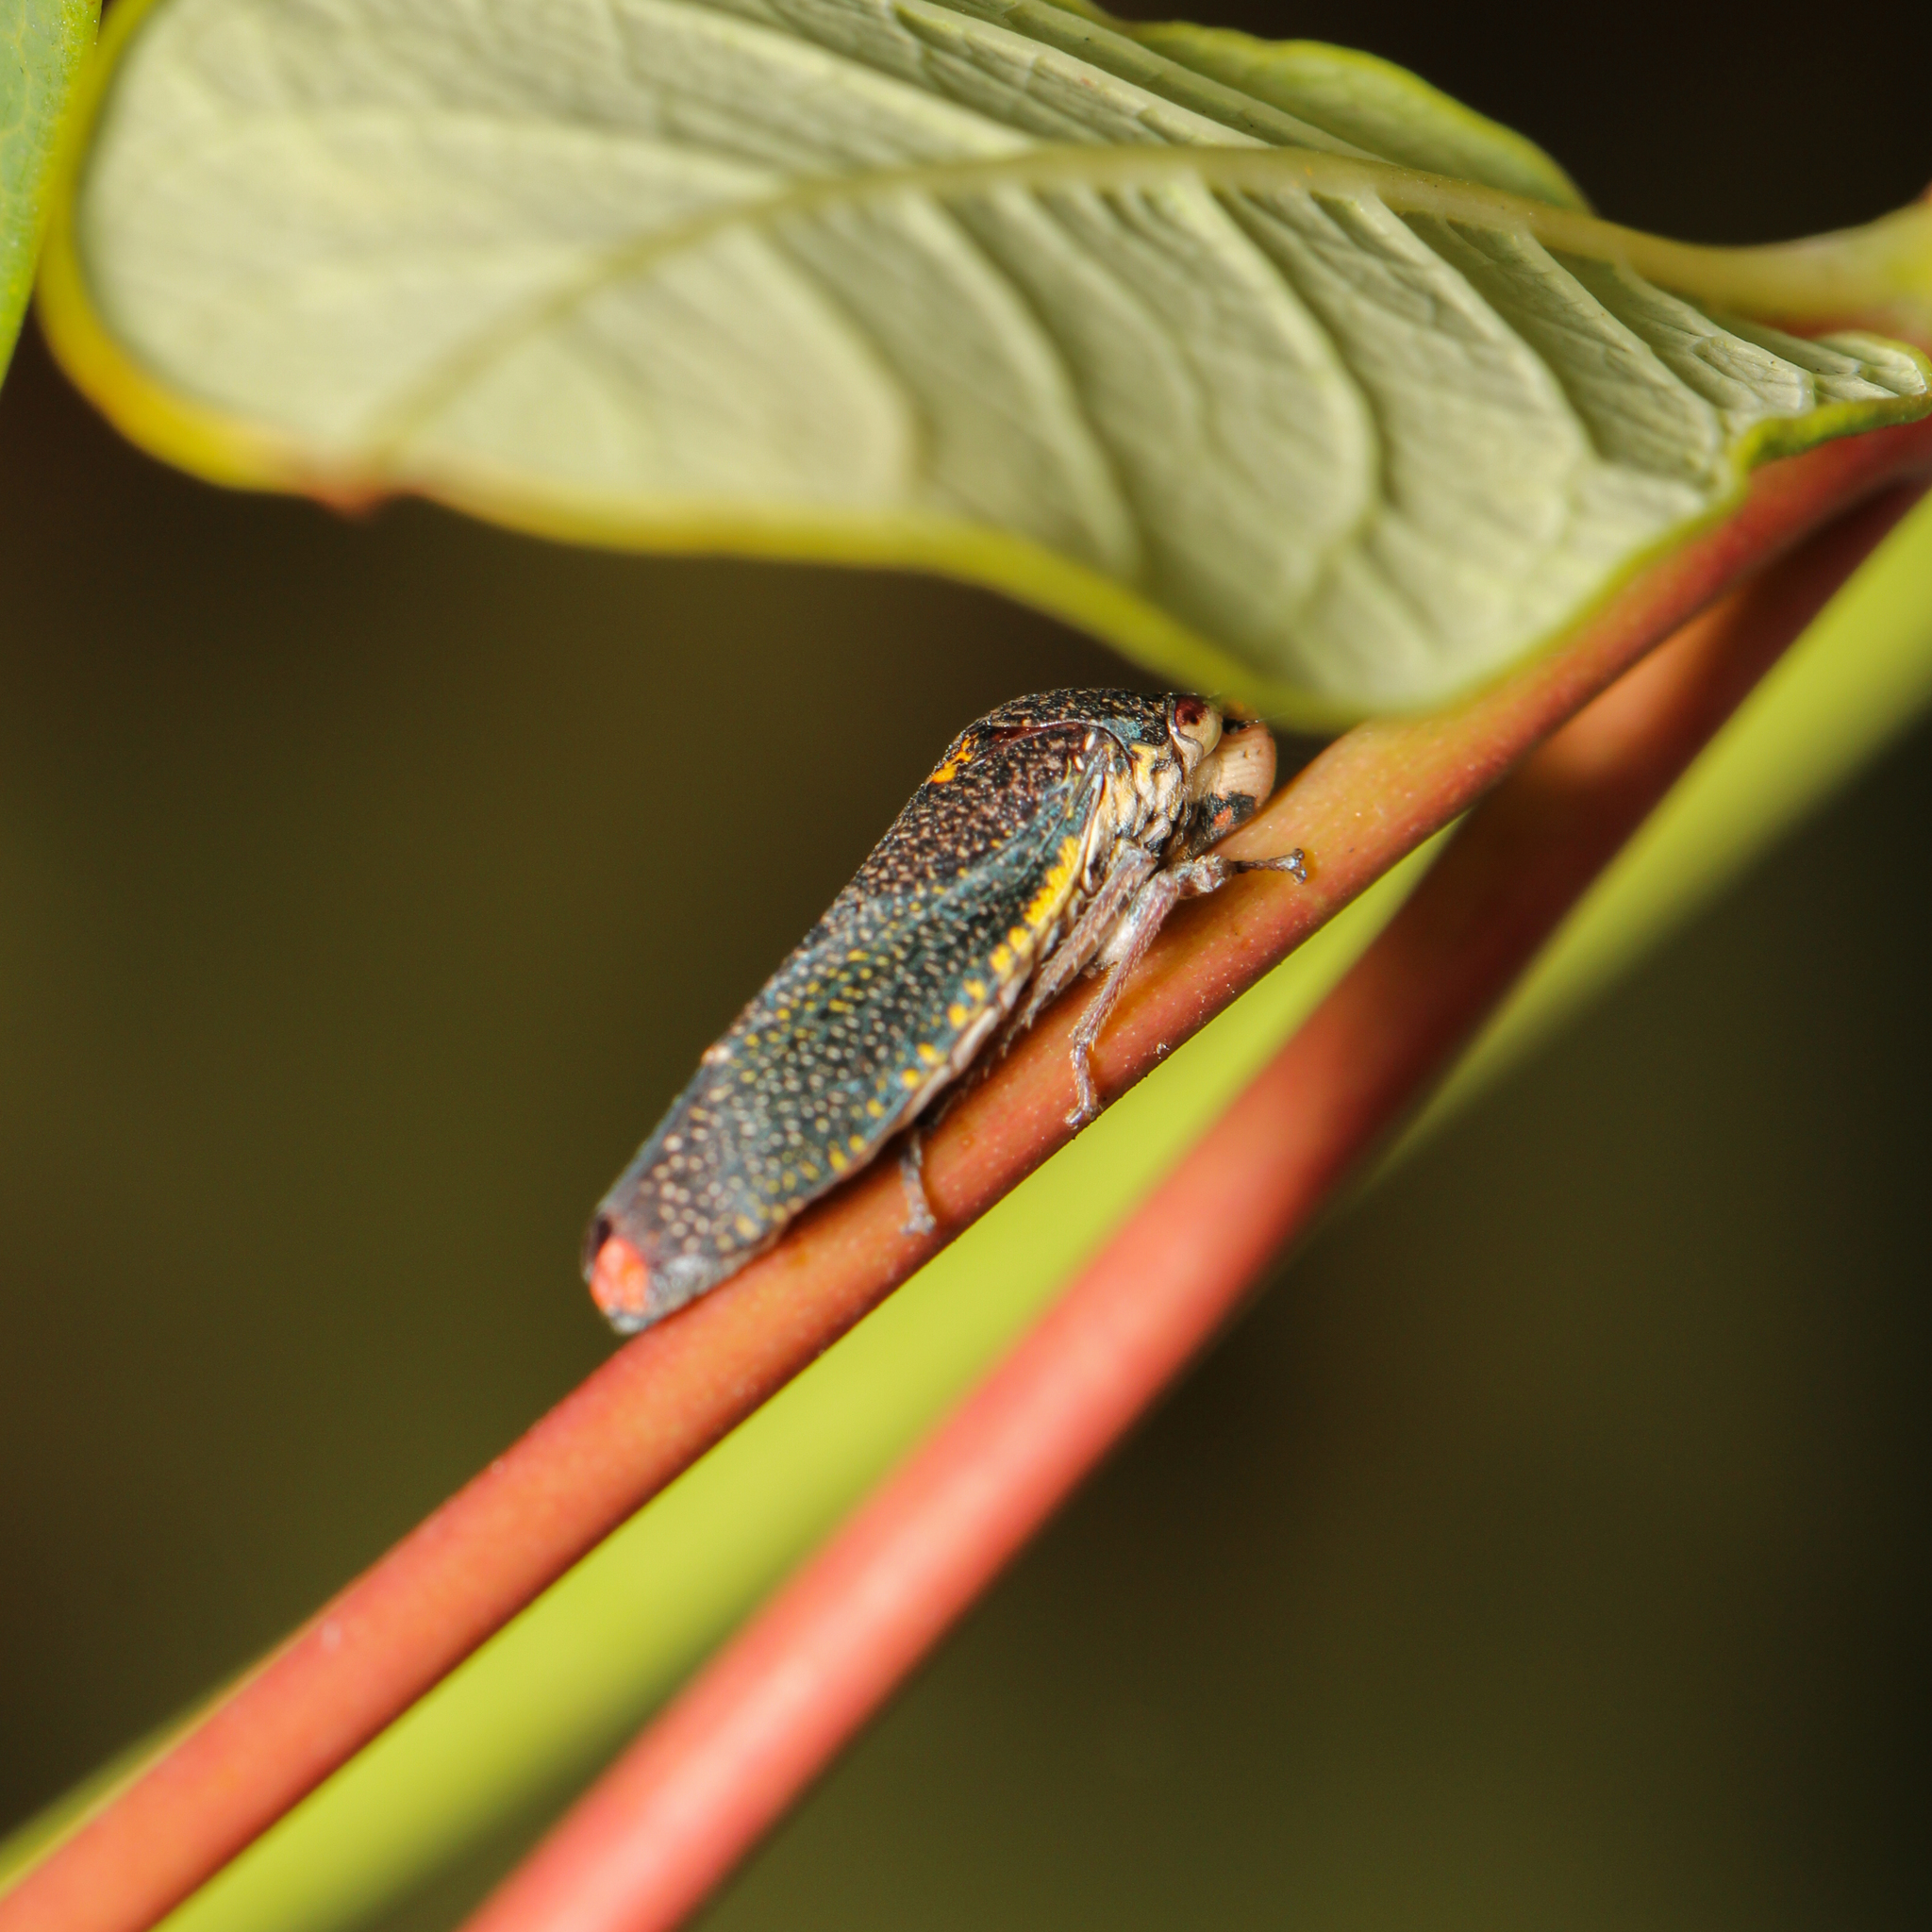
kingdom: Animalia
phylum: Arthropoda
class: Insecta
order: Hemiptera
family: Cicadellidae
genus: Paraulacizes
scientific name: Paraulacizes irrorata
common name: Speckled sharpshooter
